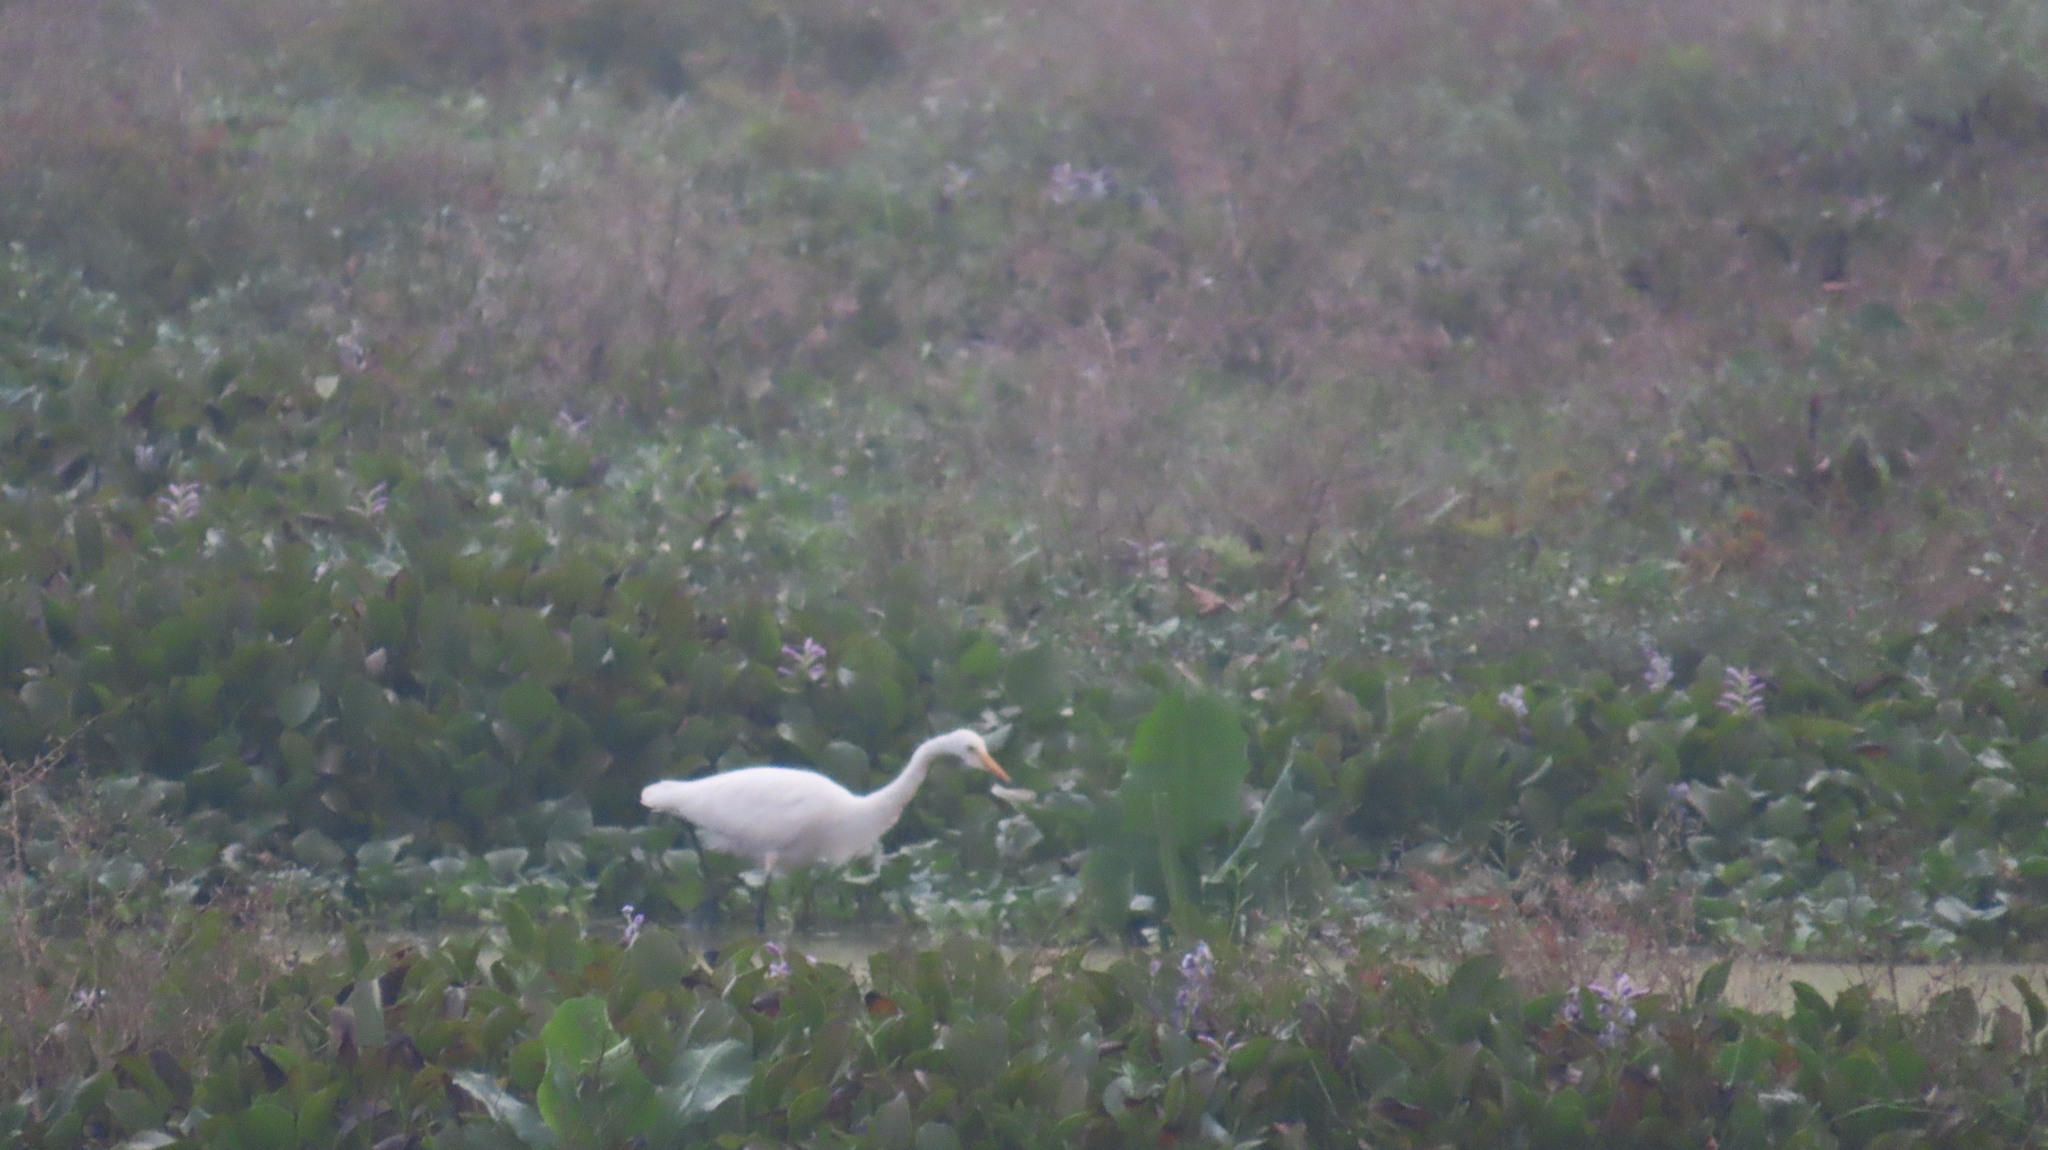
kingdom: Animalia
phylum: Chordata
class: Aves
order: Pelecaniformes
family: Ardeidae
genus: Egretta
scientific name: Egretta intermedia
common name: Intermediate egret
